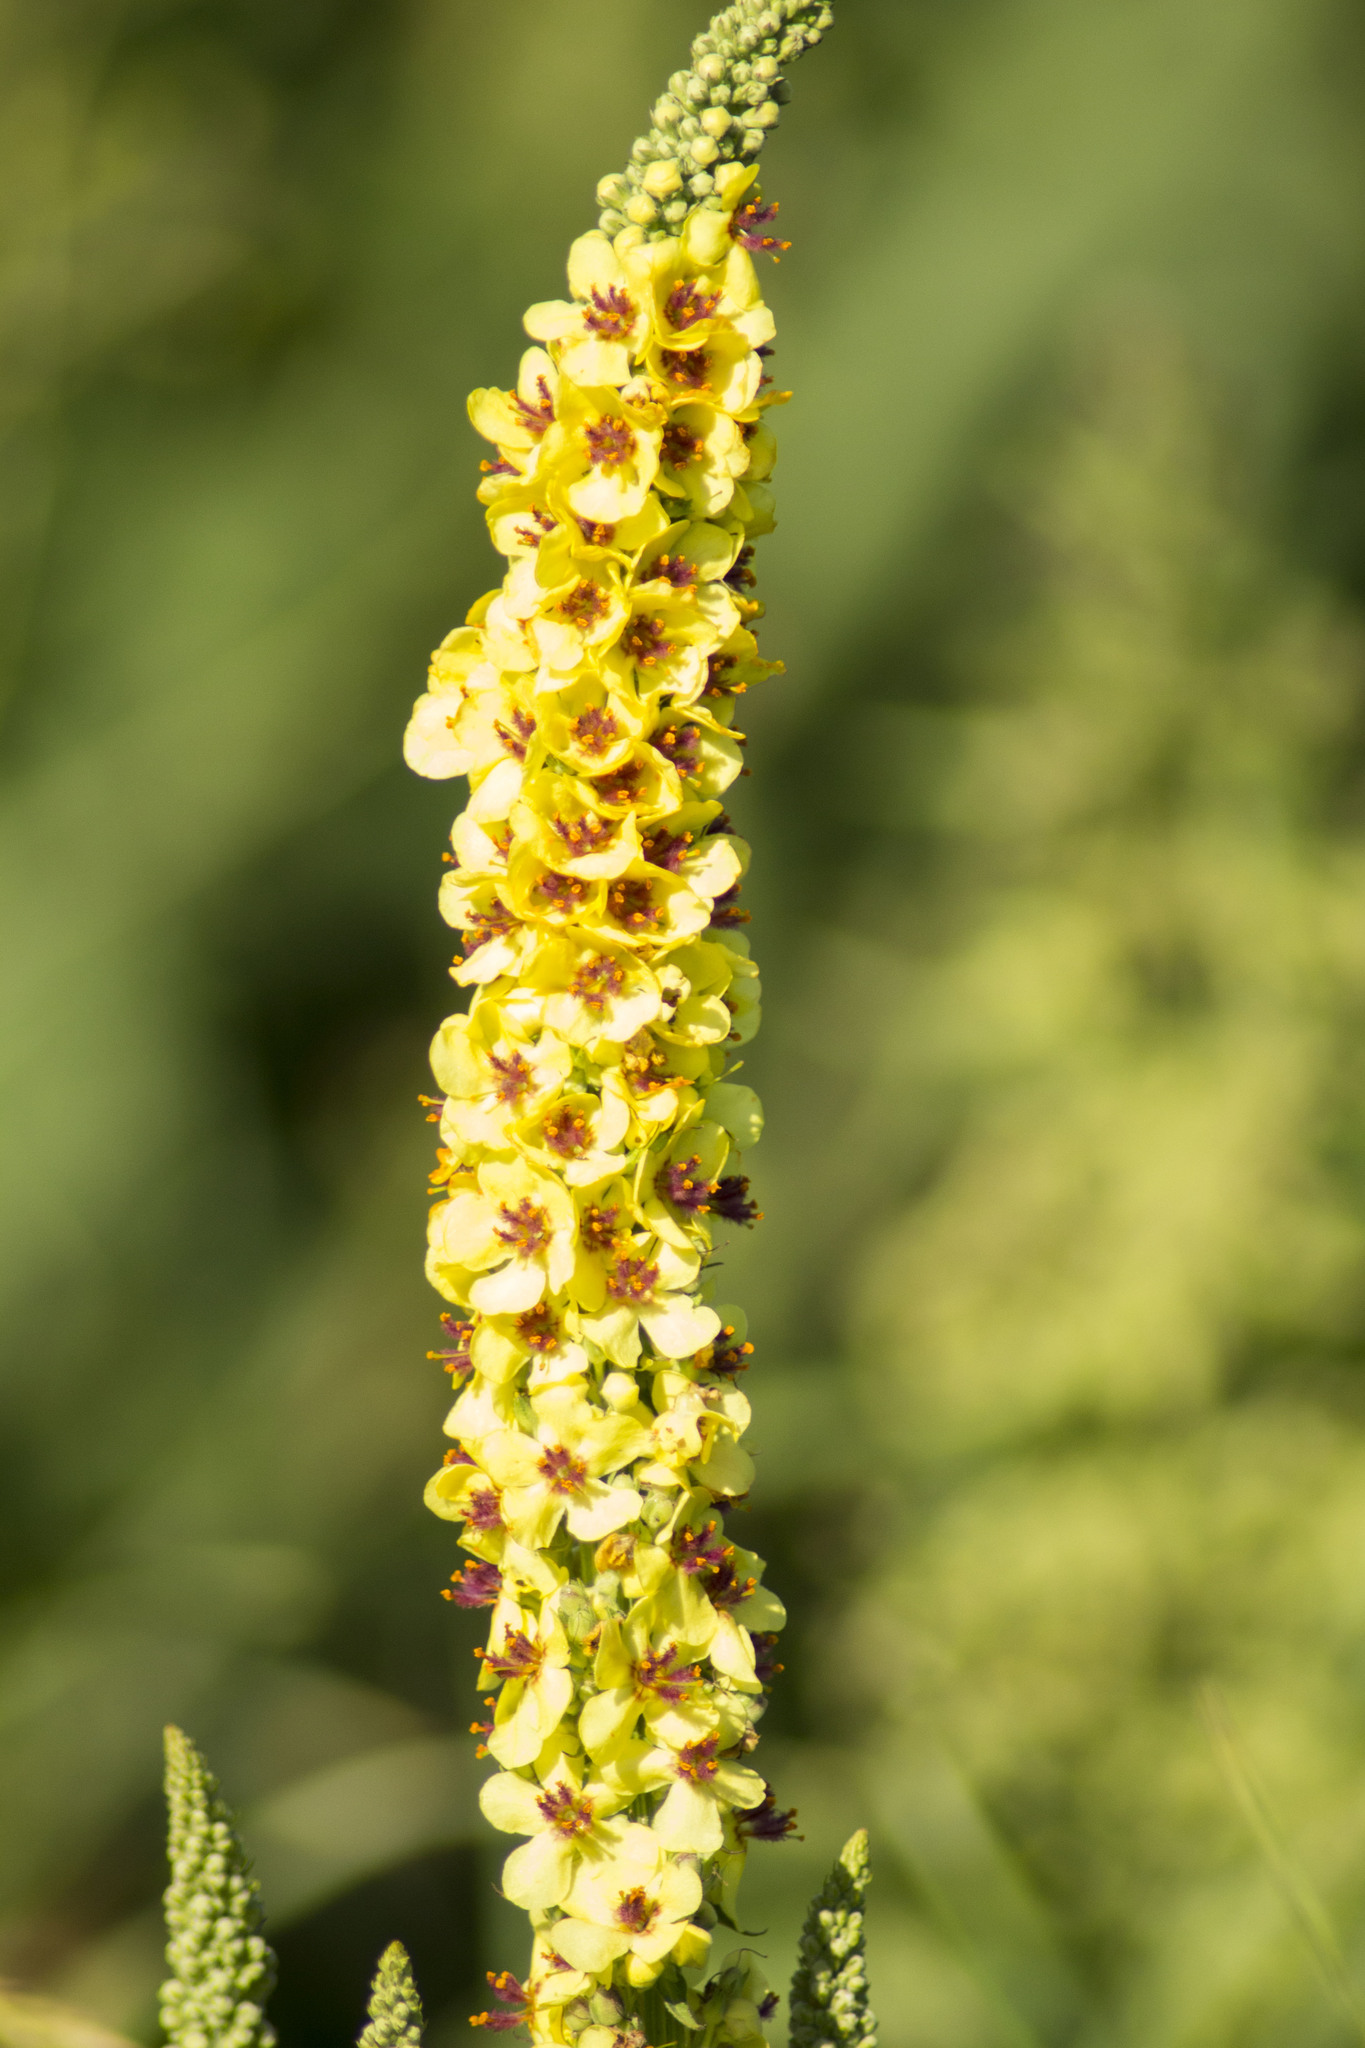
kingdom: Plantae
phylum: Tracheophyta
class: Magnoliopsida
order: Lamiales
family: Scrophulariaceae
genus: Verbascum
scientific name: Verbascum nigrum
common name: Dark mullein
